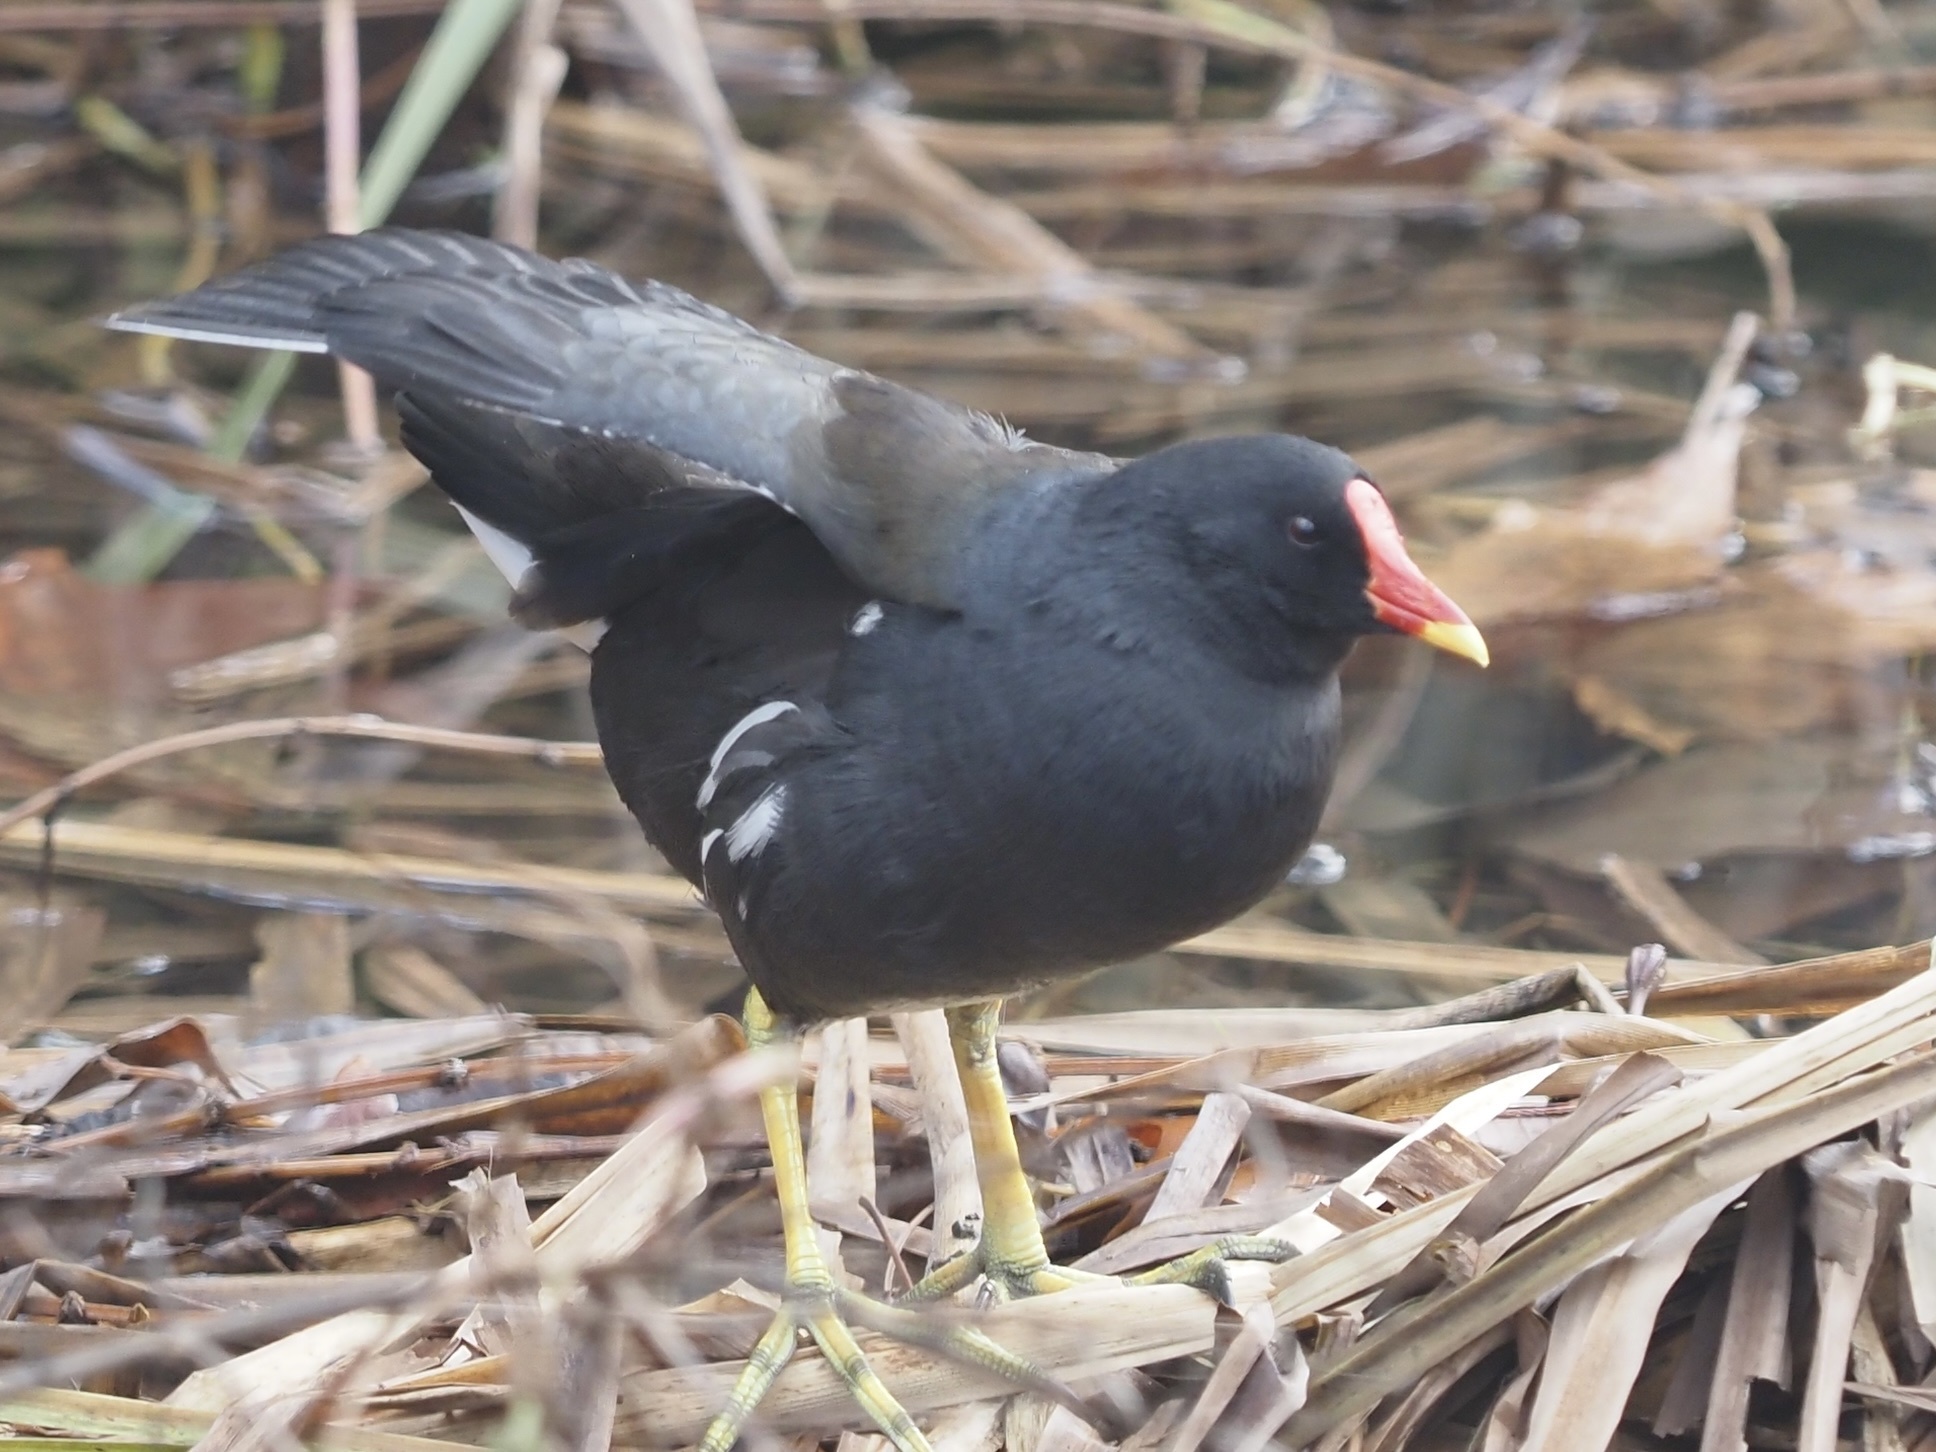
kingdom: Animalia
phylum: Chordata
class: Aves
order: Gruiformes
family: Rallidae
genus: Gallinula
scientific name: Gallinula chloropus
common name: Common moorhen
